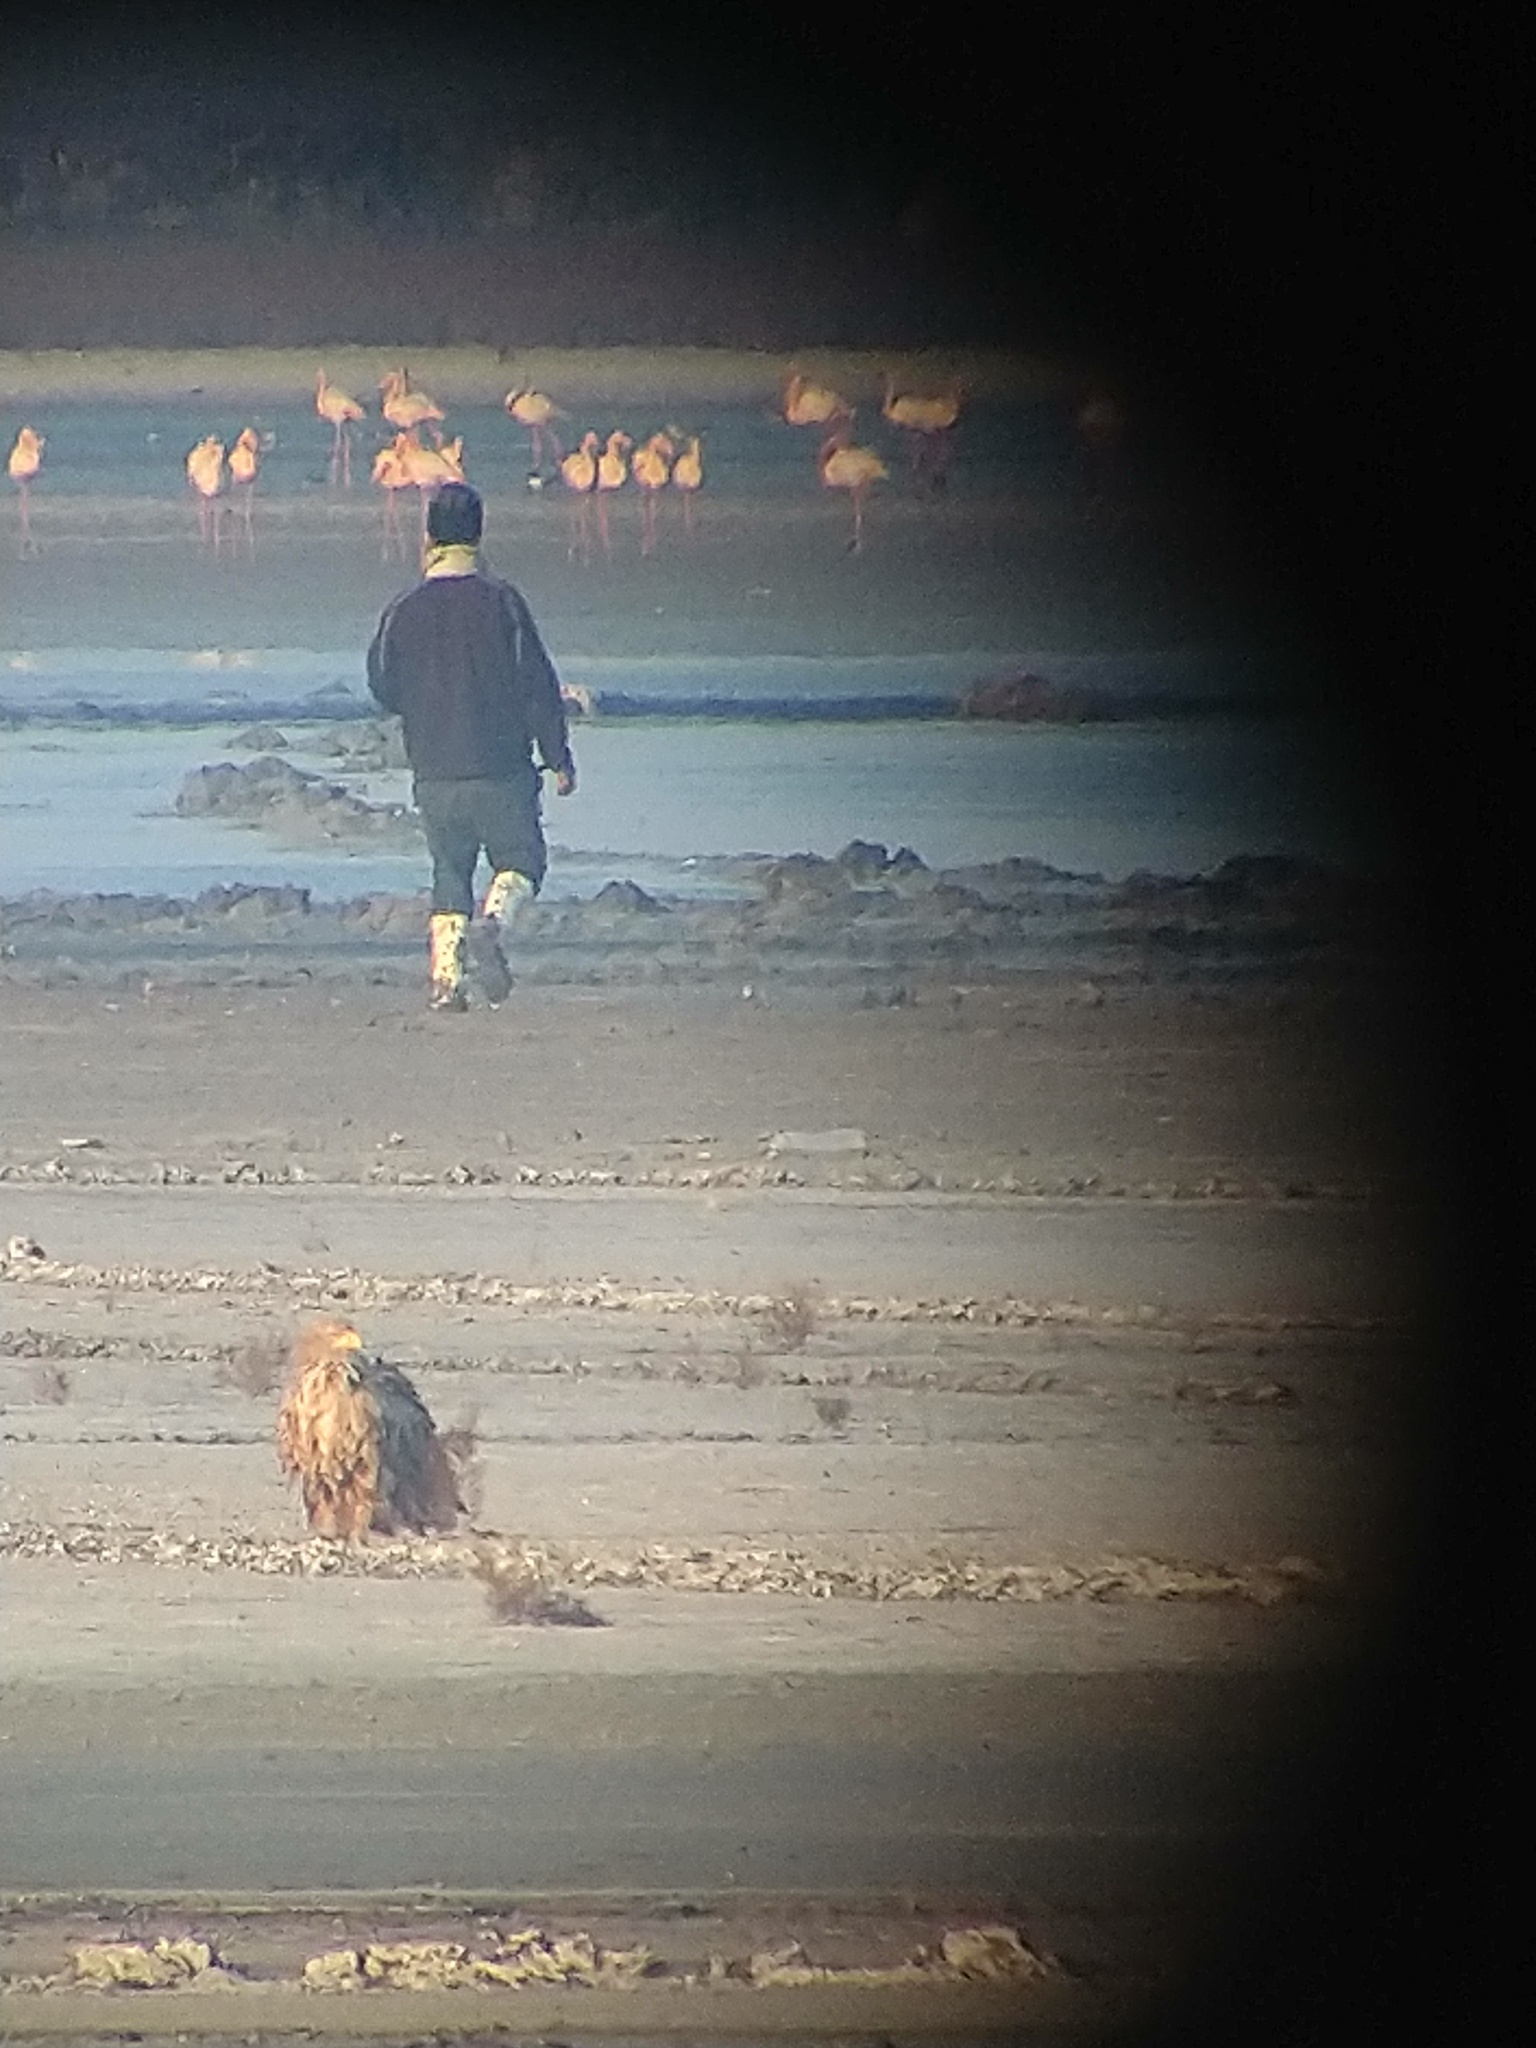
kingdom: Animalia
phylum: Chordata
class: Aves
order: Accipitriformes
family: Accipitridae
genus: Haliaeetus
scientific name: Haliaeetus albicilla
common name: White-tailed eagle
